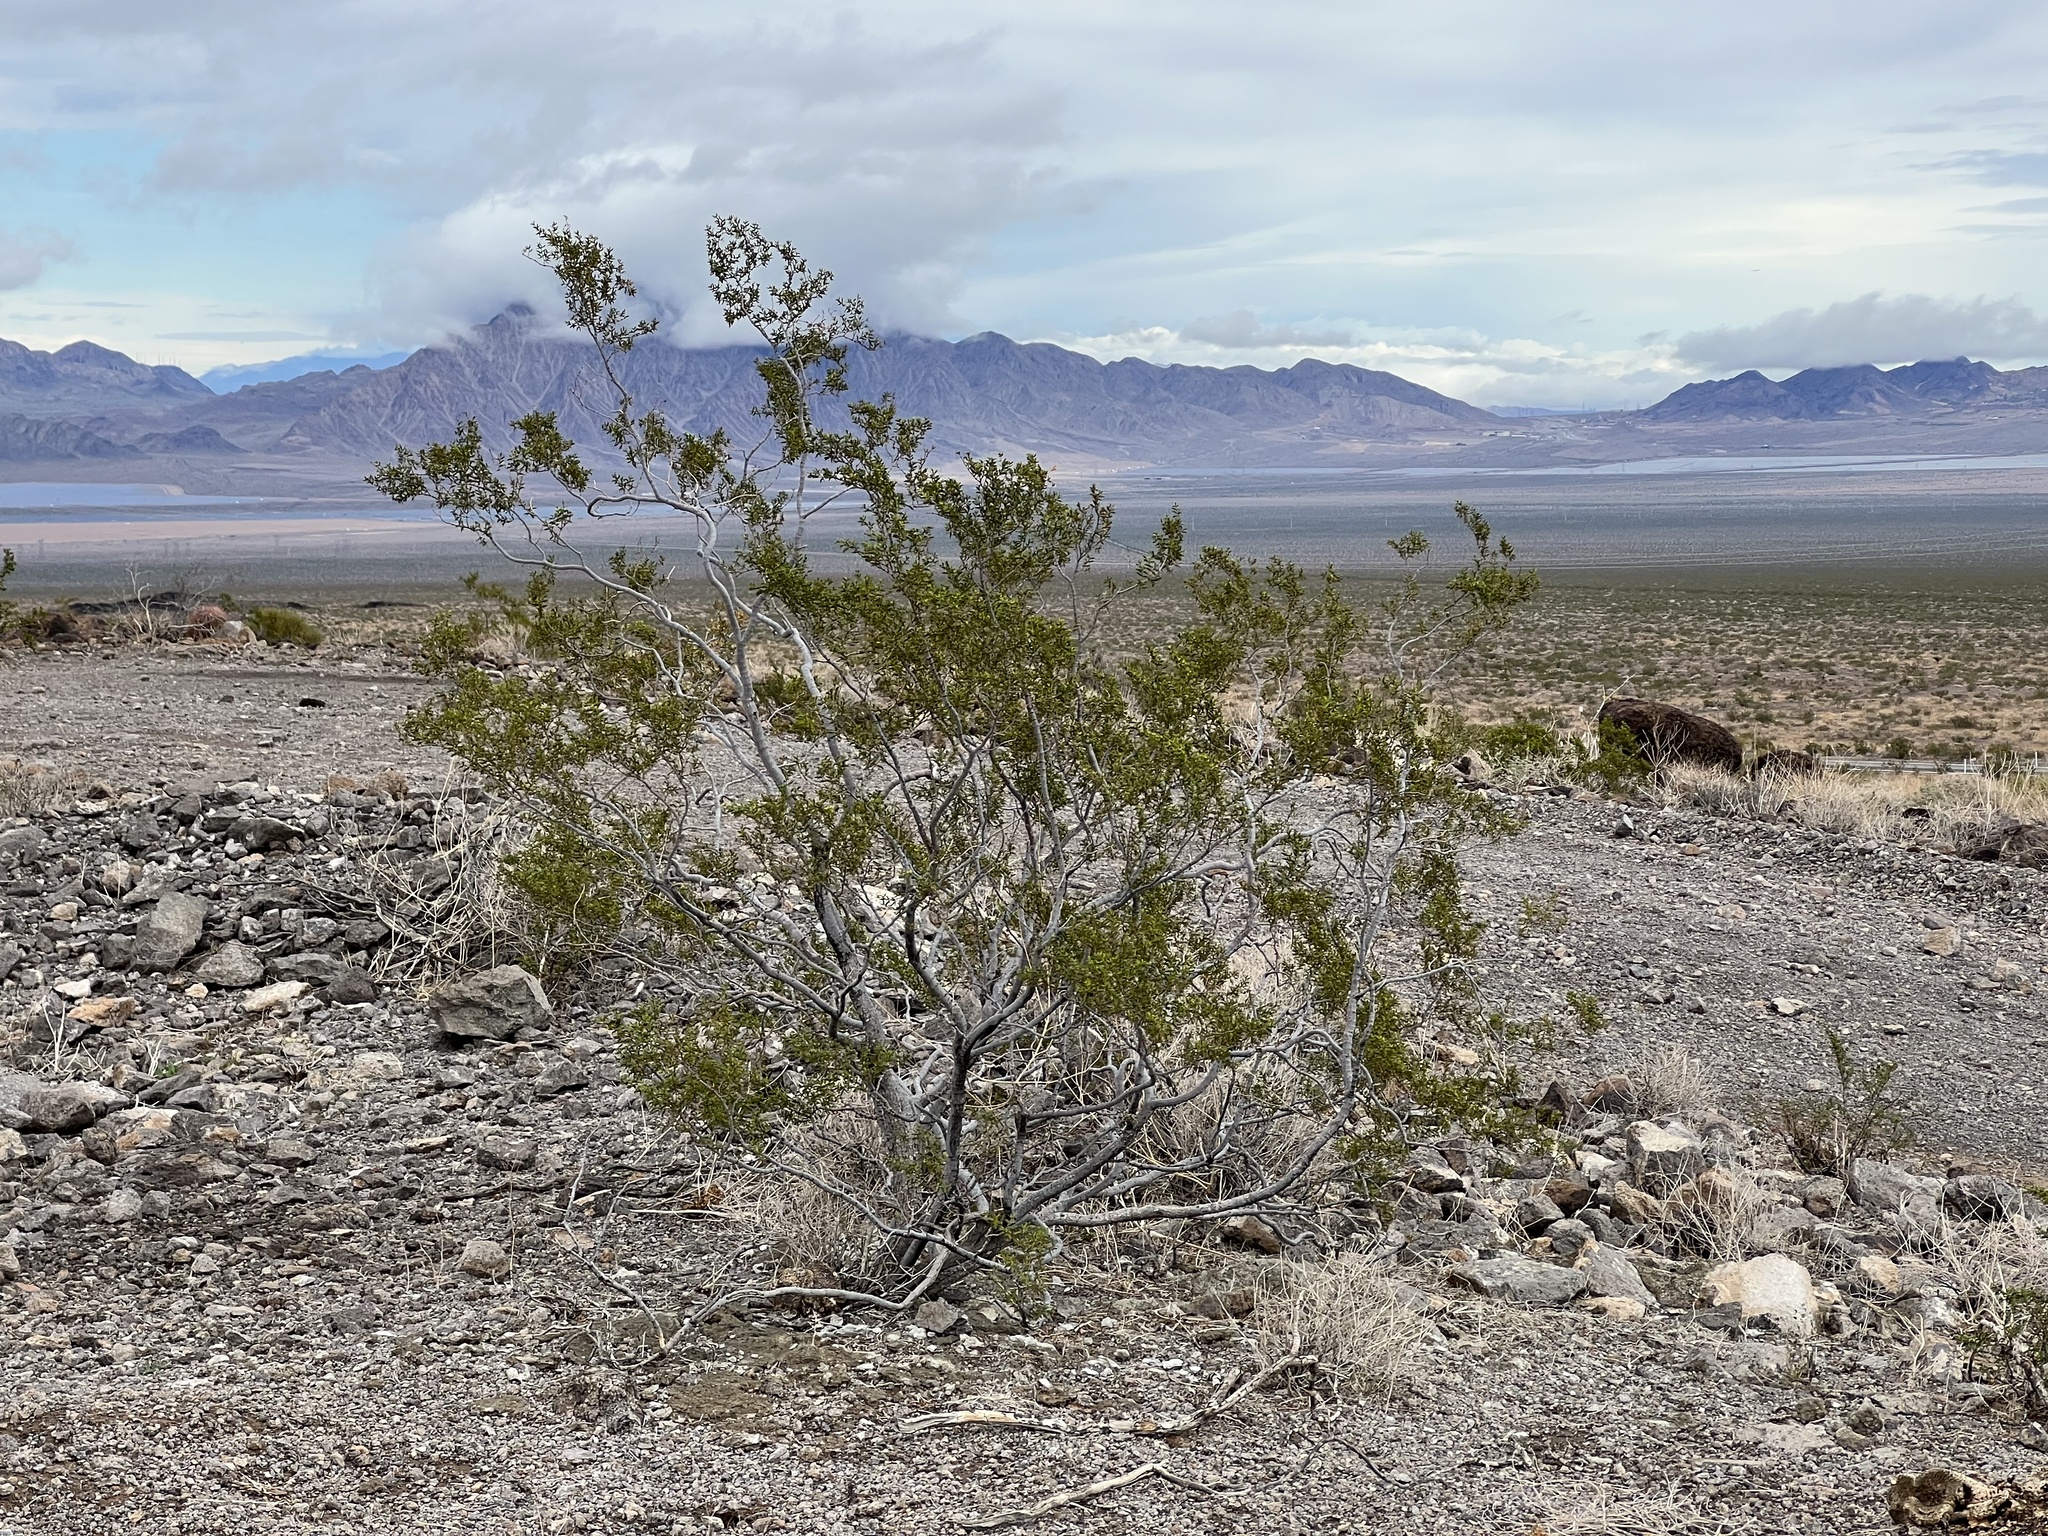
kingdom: Plantae
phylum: Tracheophyta
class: Magnoliopsida
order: Zygophyllales
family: Zygophyllaceae
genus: Larrea
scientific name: Larrea tridentata
